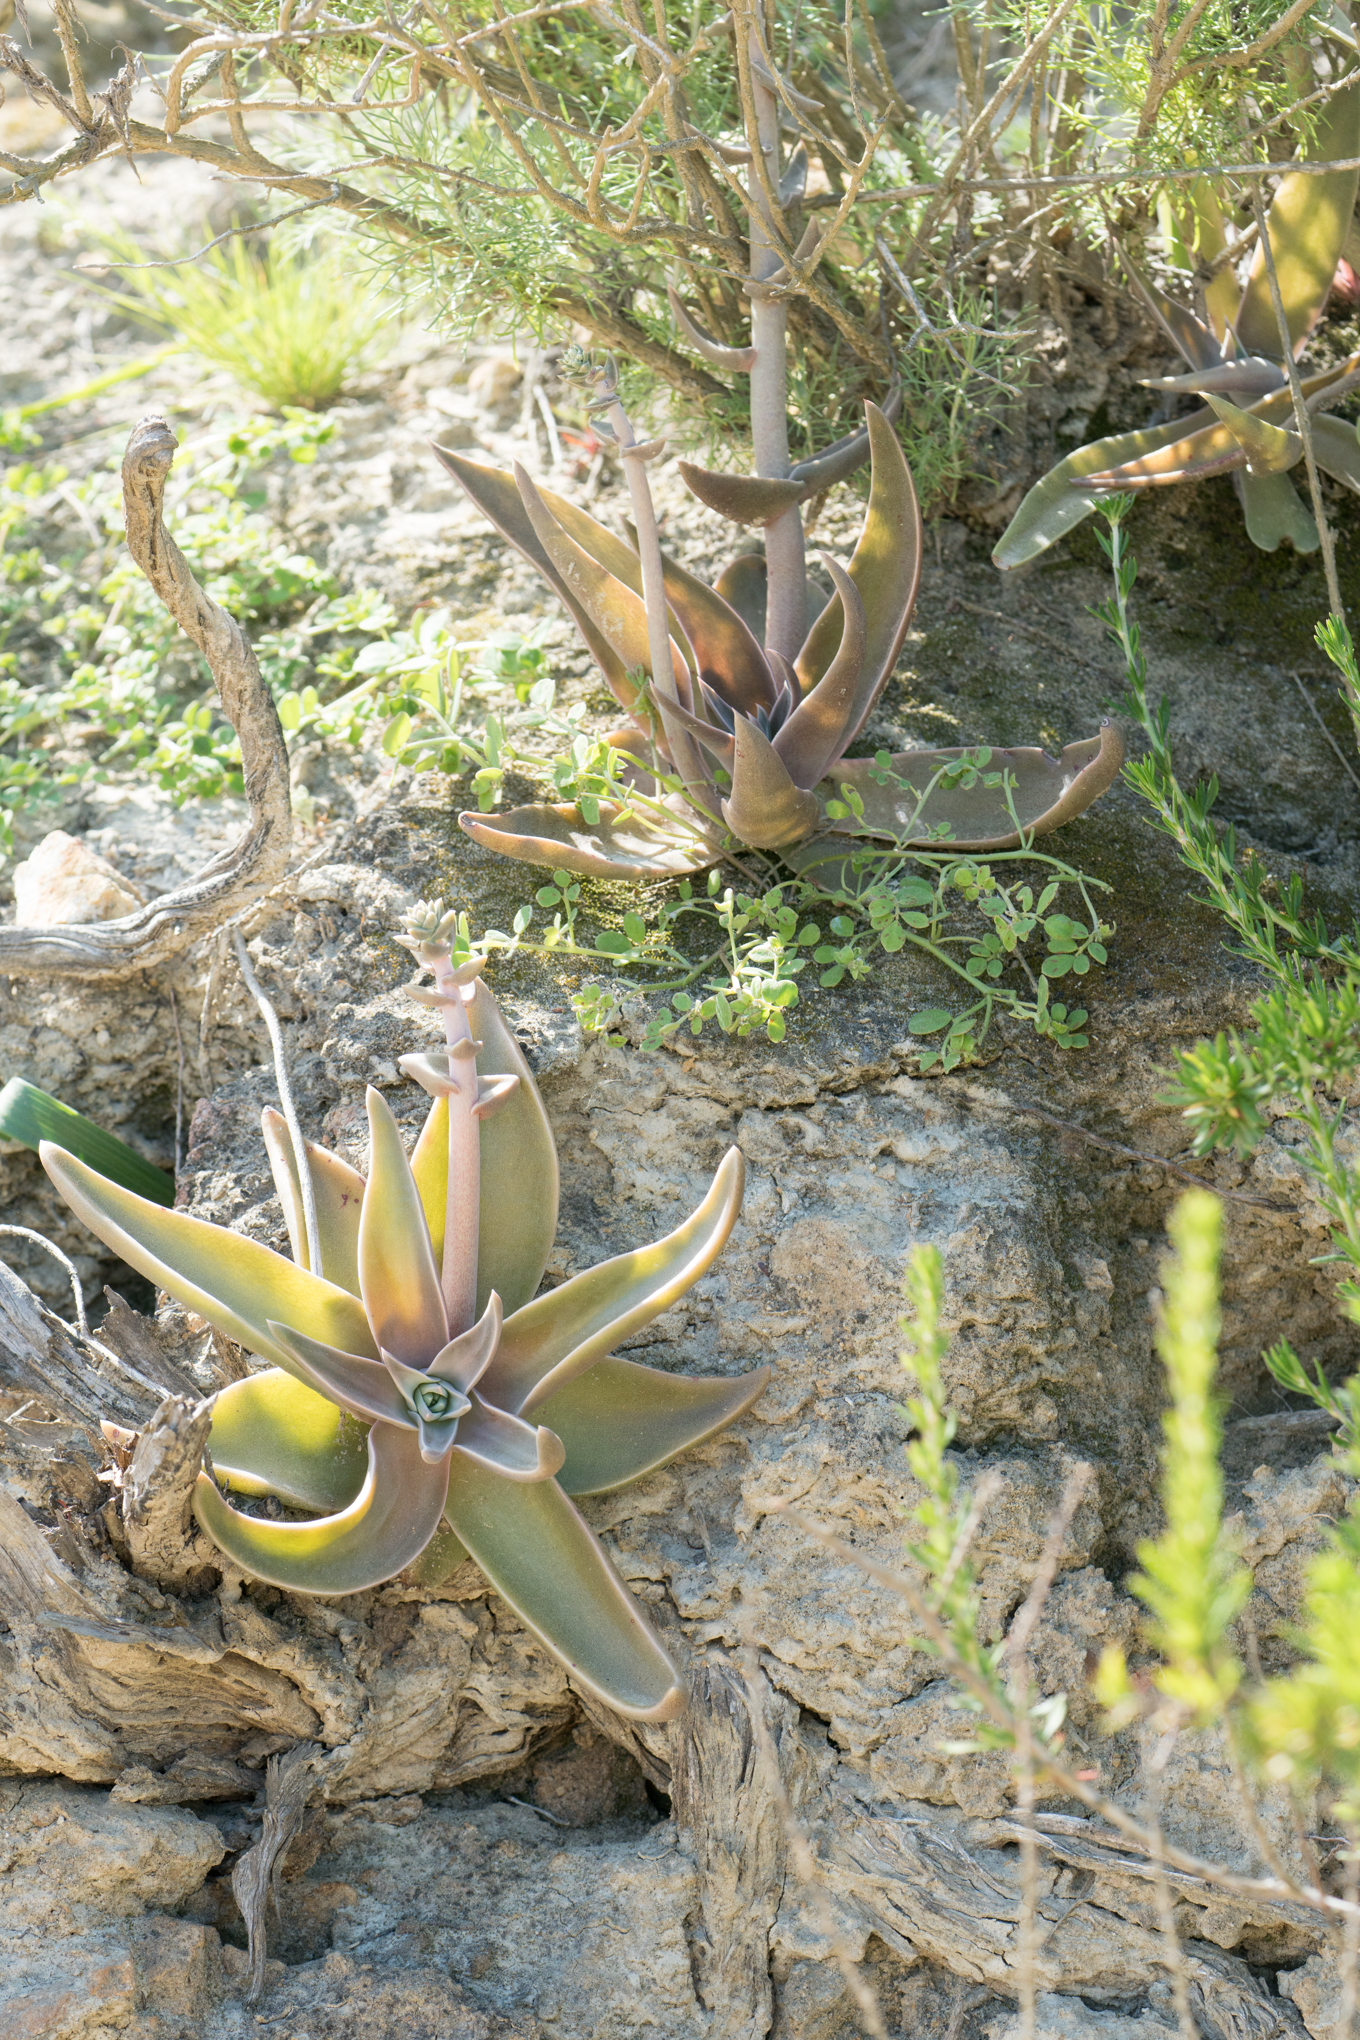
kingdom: Plantae
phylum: Tracheophyta
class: Magnoliopsida
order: Saxifragales
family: Crassulaceae
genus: Dudleya
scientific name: Dudleya lanceolata
